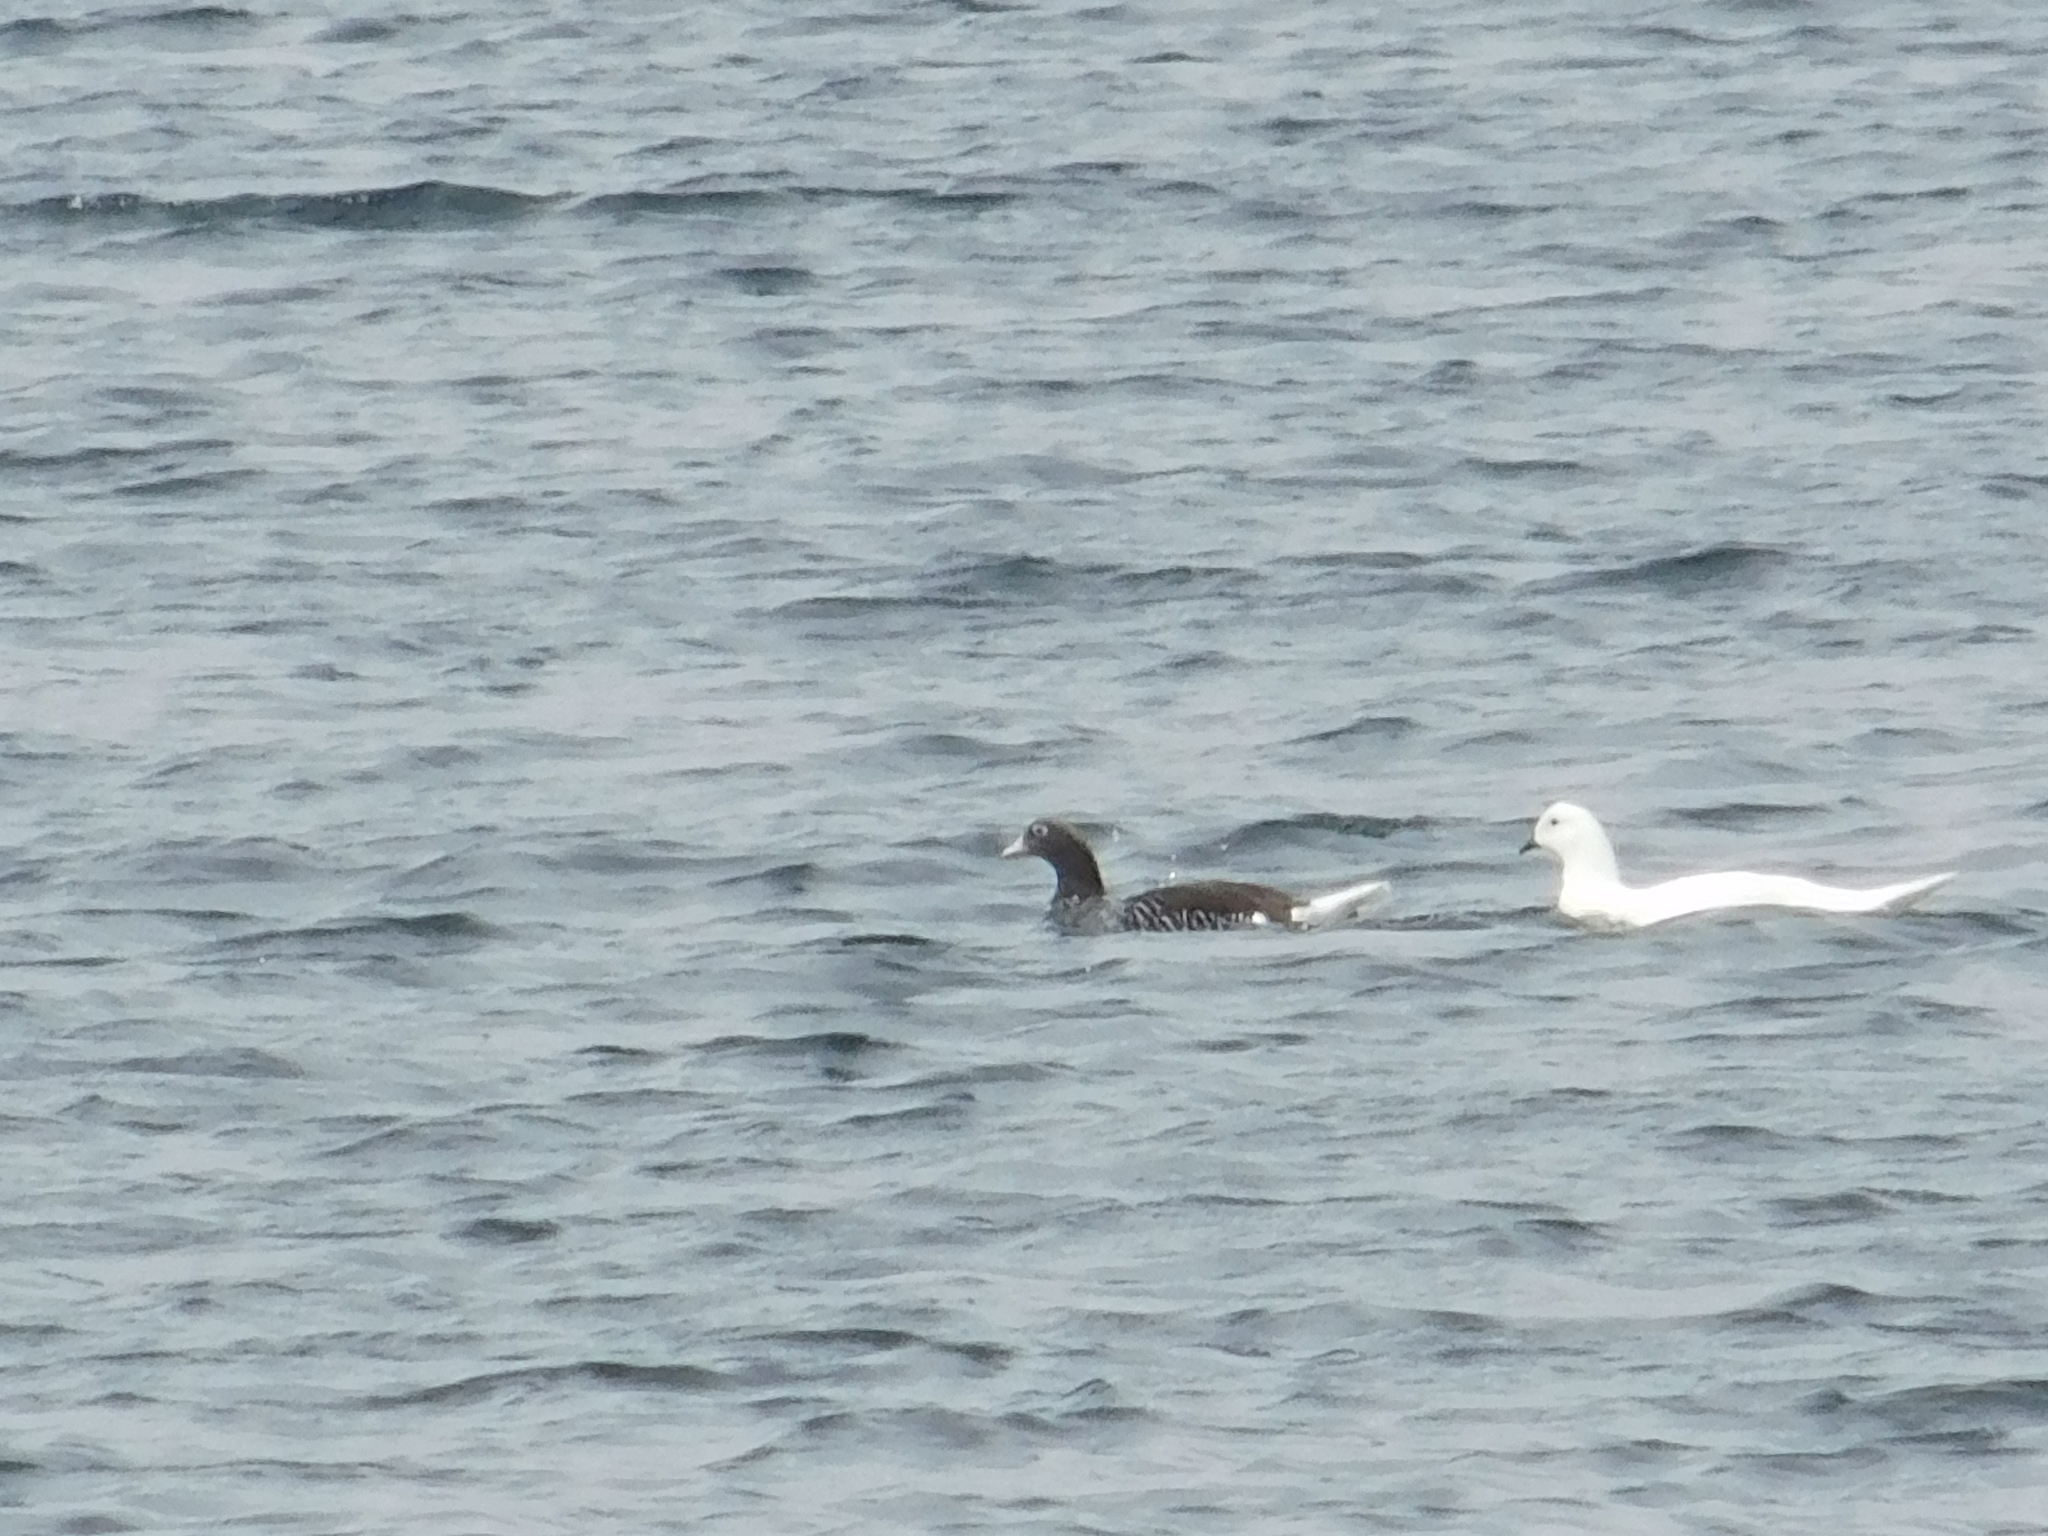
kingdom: Animalia
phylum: Chordata
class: Aves
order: Anseriformes
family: Anatidae
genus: Chloephaga
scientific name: Chloephaga hybrida
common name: Kelp goose
